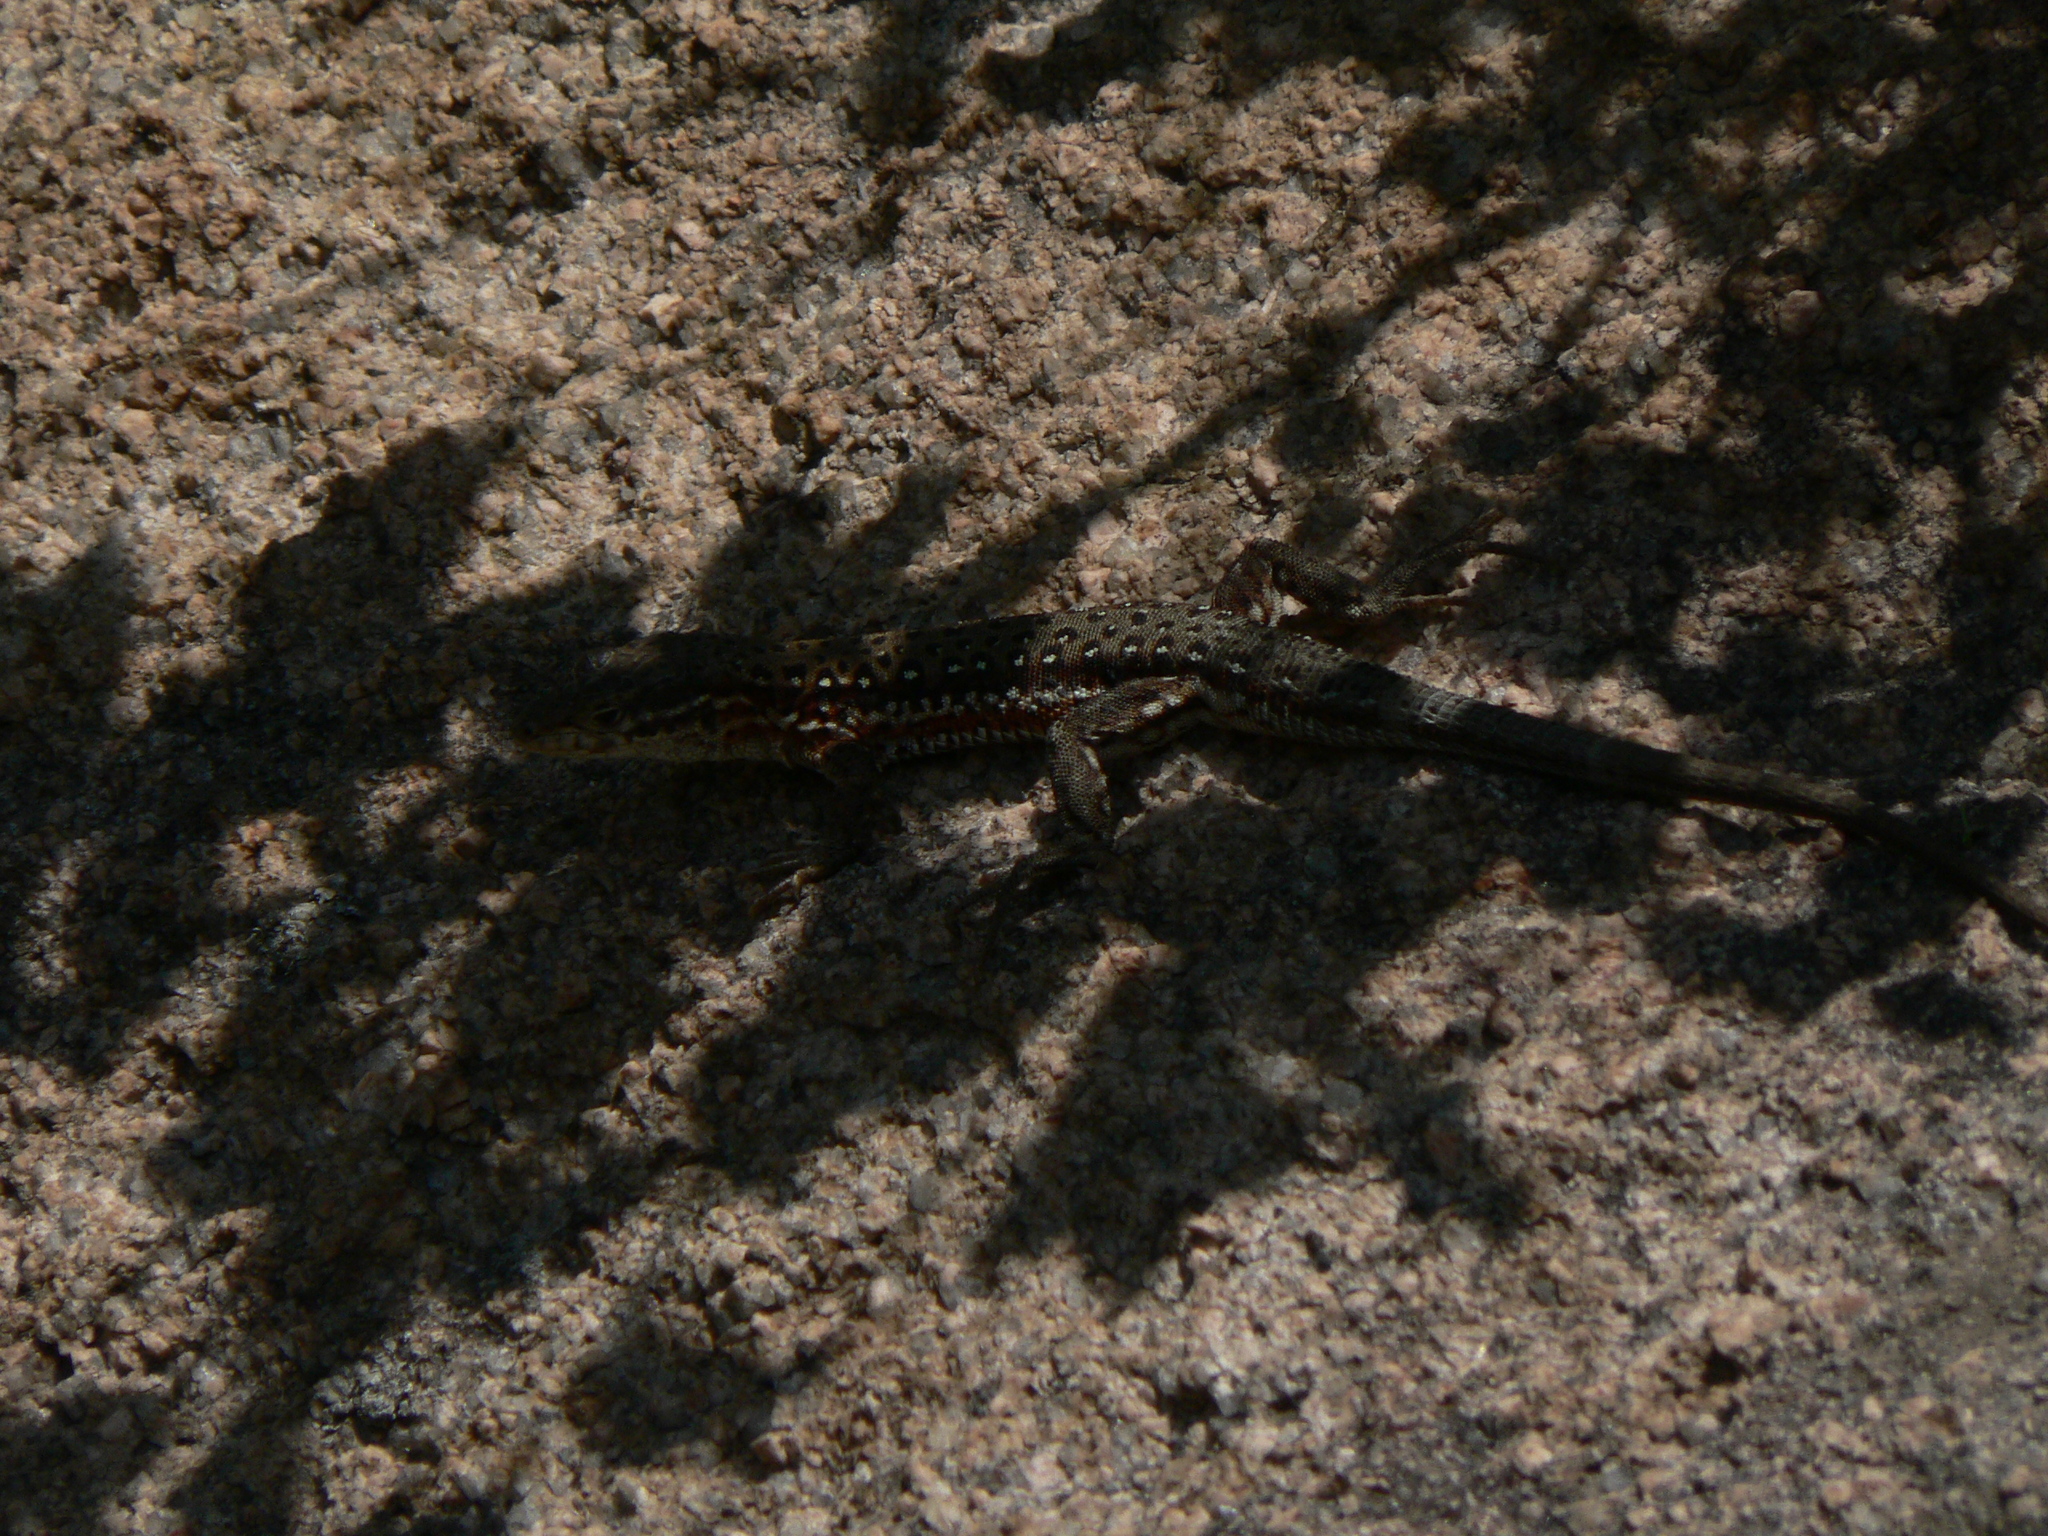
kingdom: Animalia
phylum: Chordata
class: Squamata
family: Lacertidae
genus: Eremias
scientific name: Eremias brenchleyi
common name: Ordos racerunner
